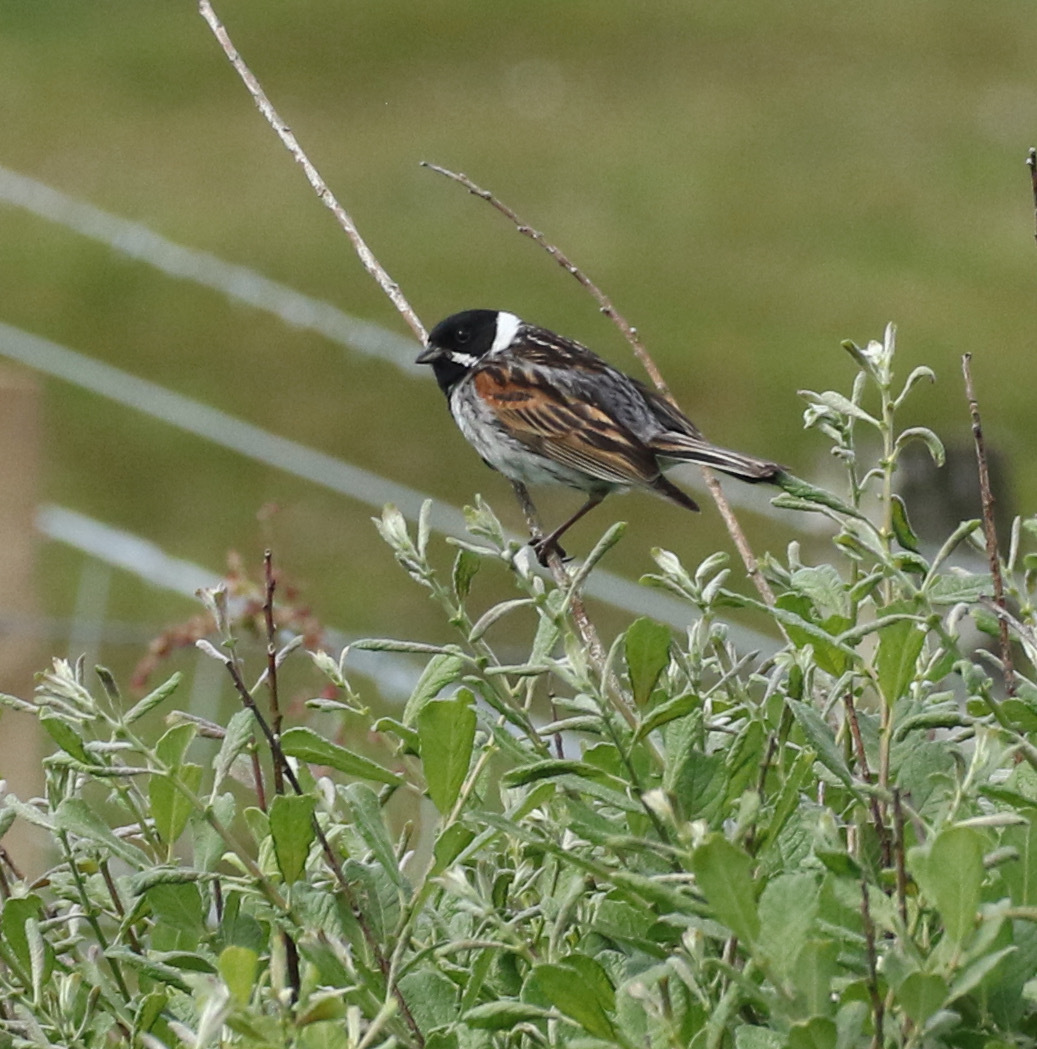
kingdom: Animalia
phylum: Chordata
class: Aves
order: Passeriformes
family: Emberizidae
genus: Emberiza
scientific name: Emberiza schoeniclus
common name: Reed bunting
